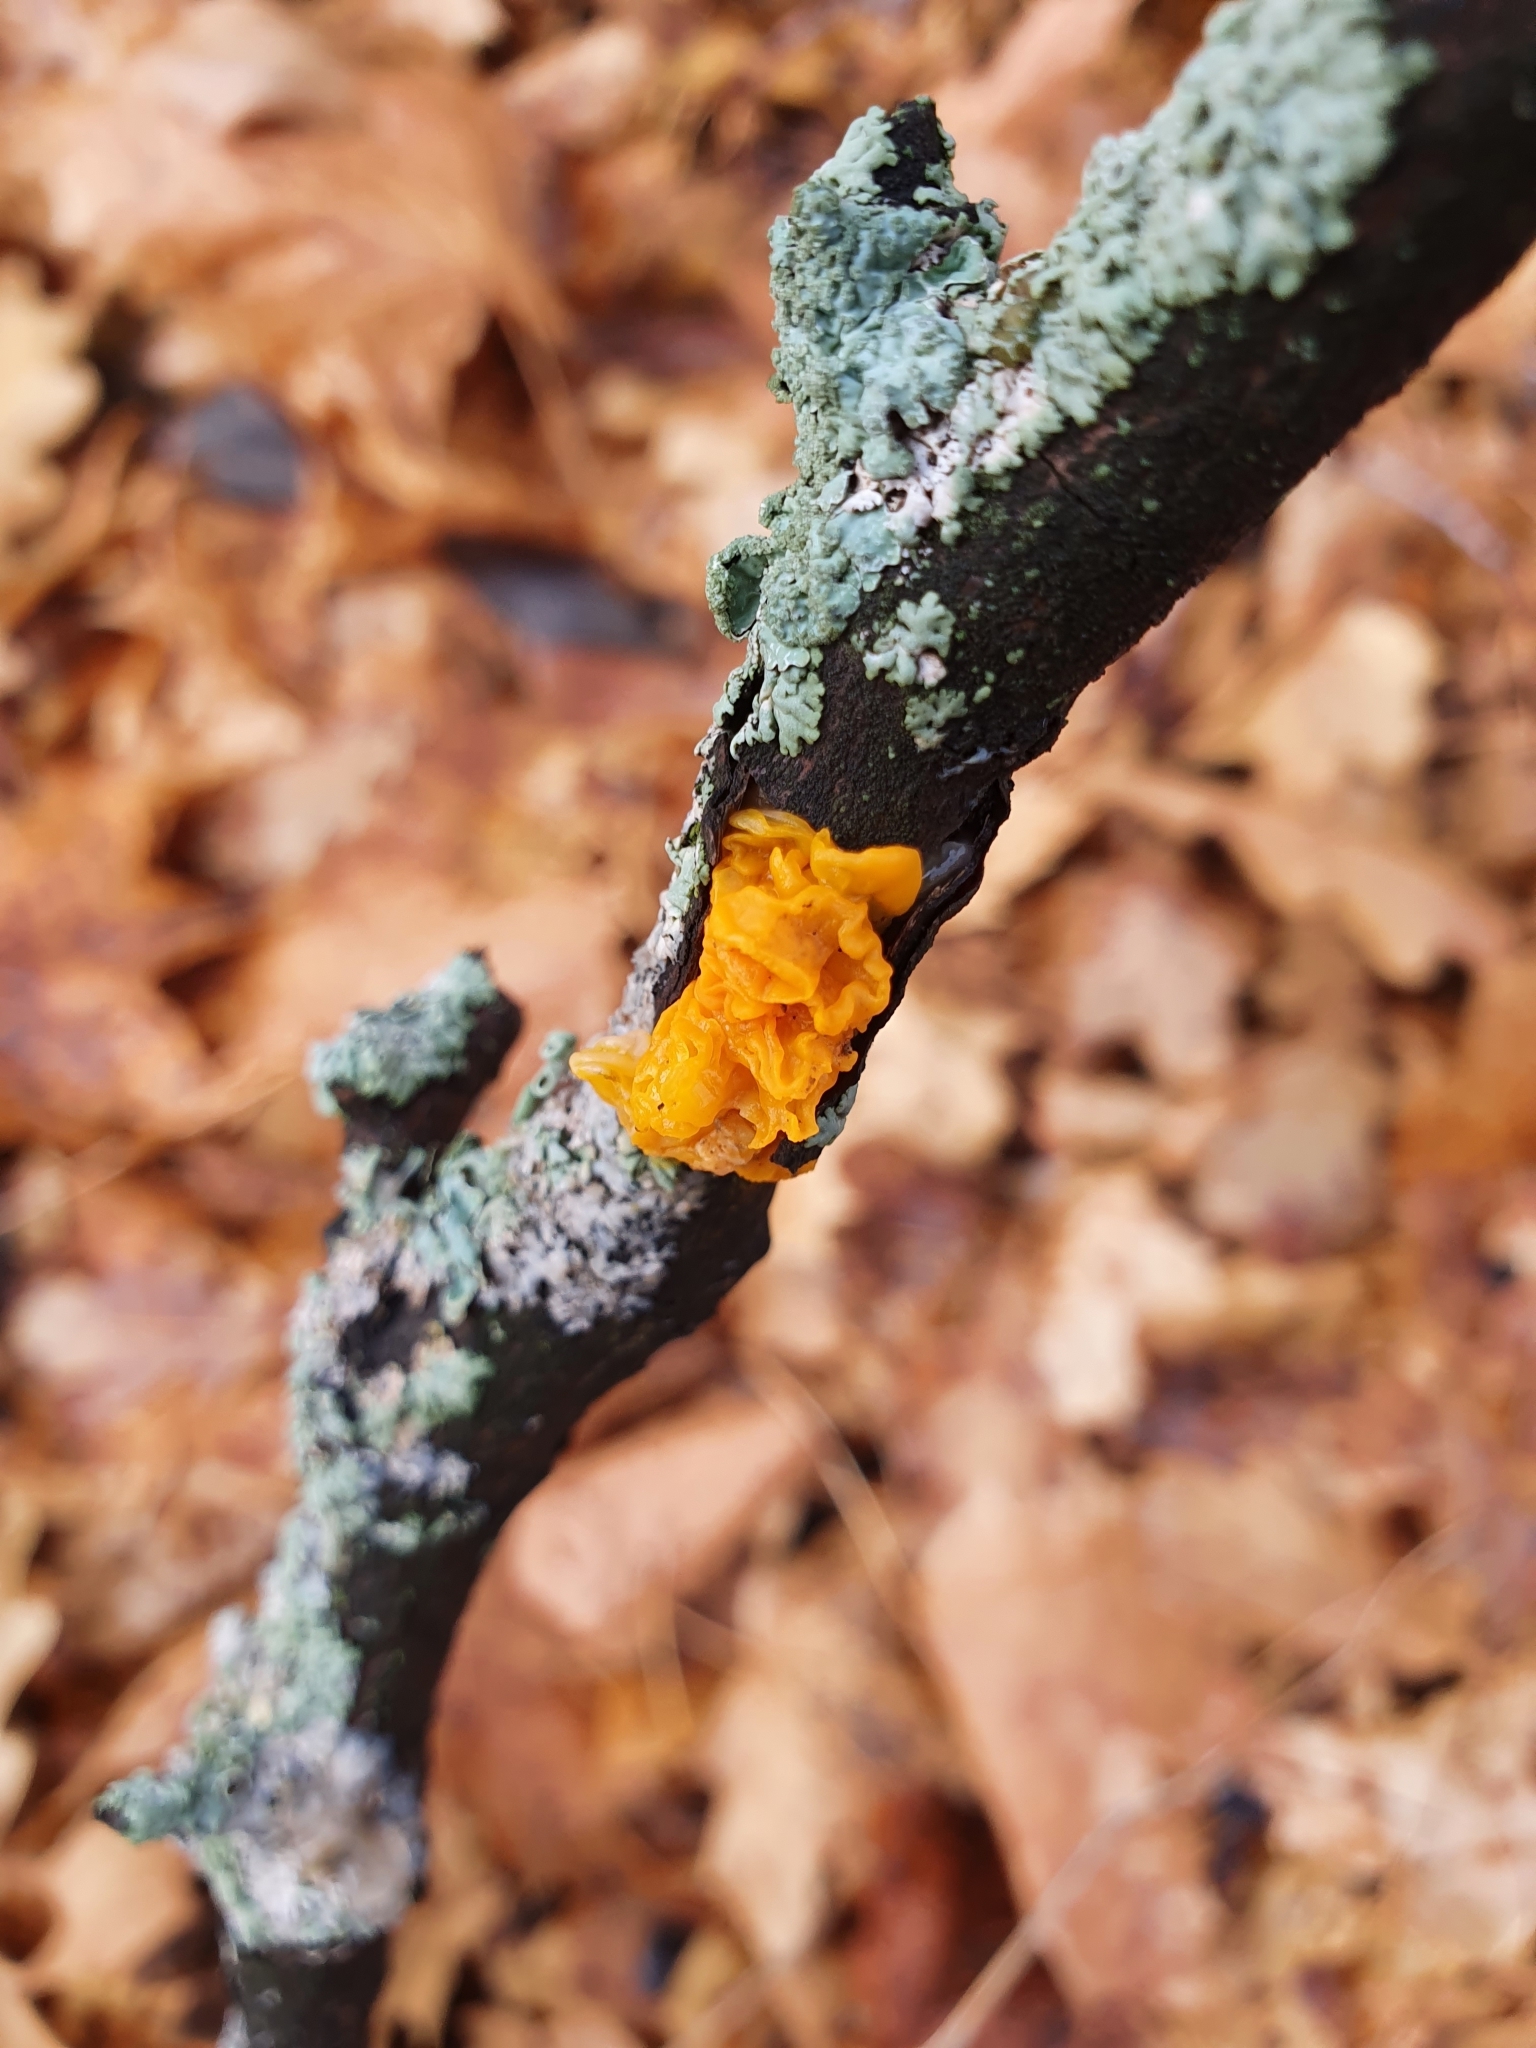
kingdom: Fungi
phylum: Basidiomycota
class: Tremellomycetes
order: Tremellales
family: Tremellaceae
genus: Tremella
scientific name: Tremella mesenterica
